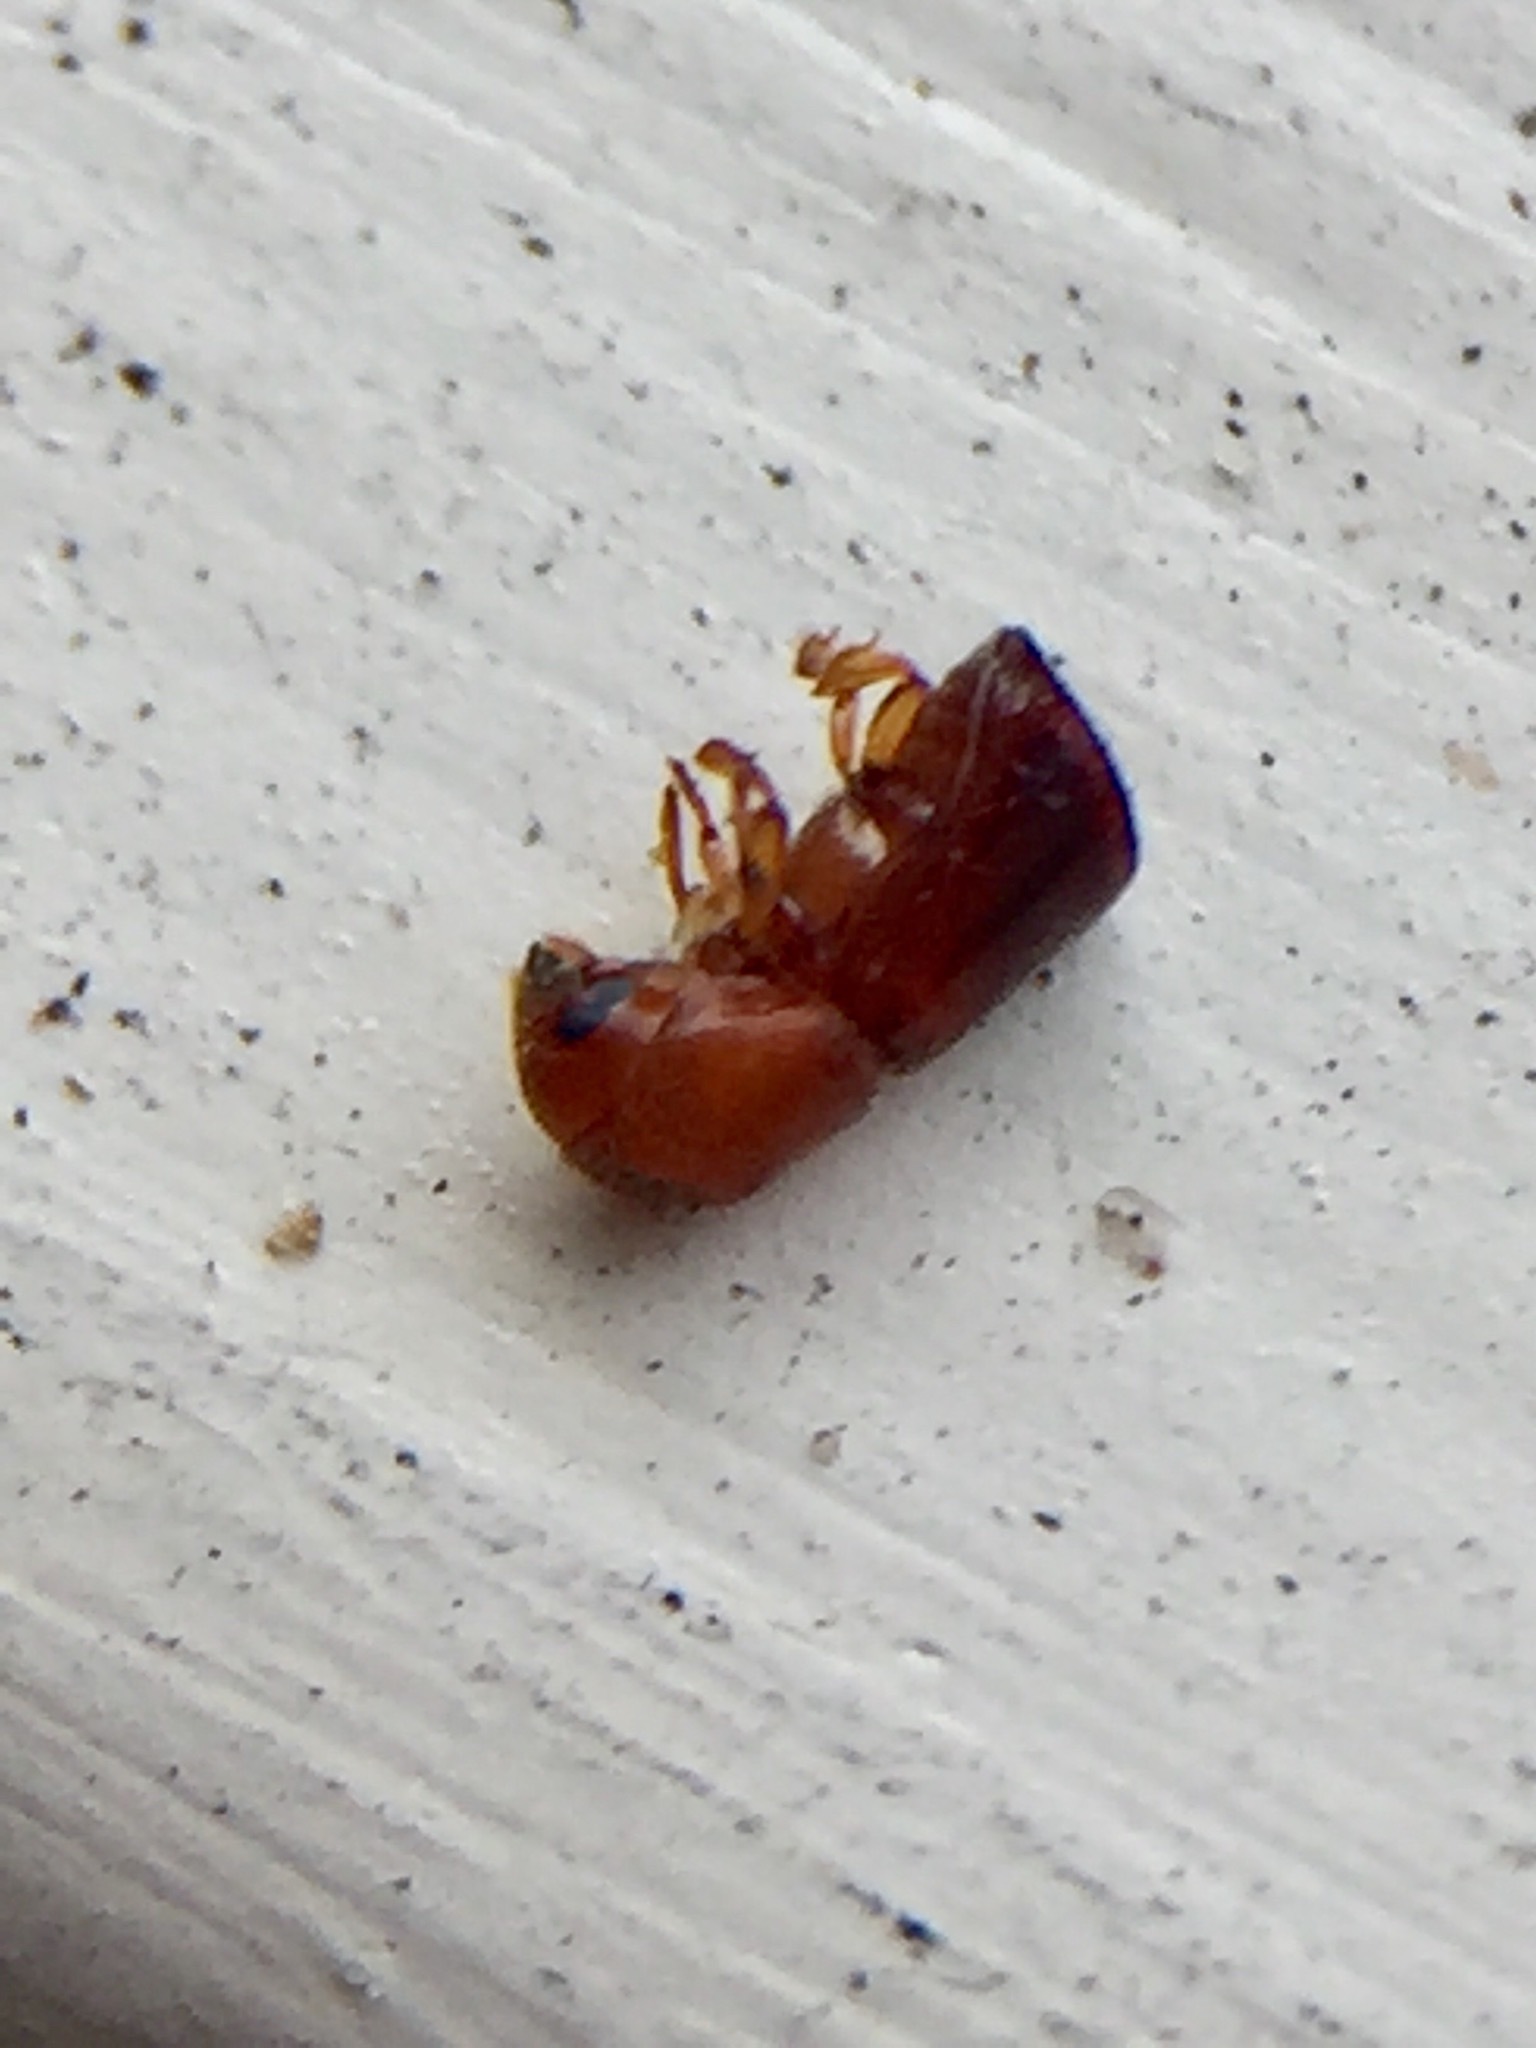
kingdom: Animalia
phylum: Arthropoda
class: Insecta
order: Coleoptera
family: Curculionidae
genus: Amasa
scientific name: Amasa truncatus
